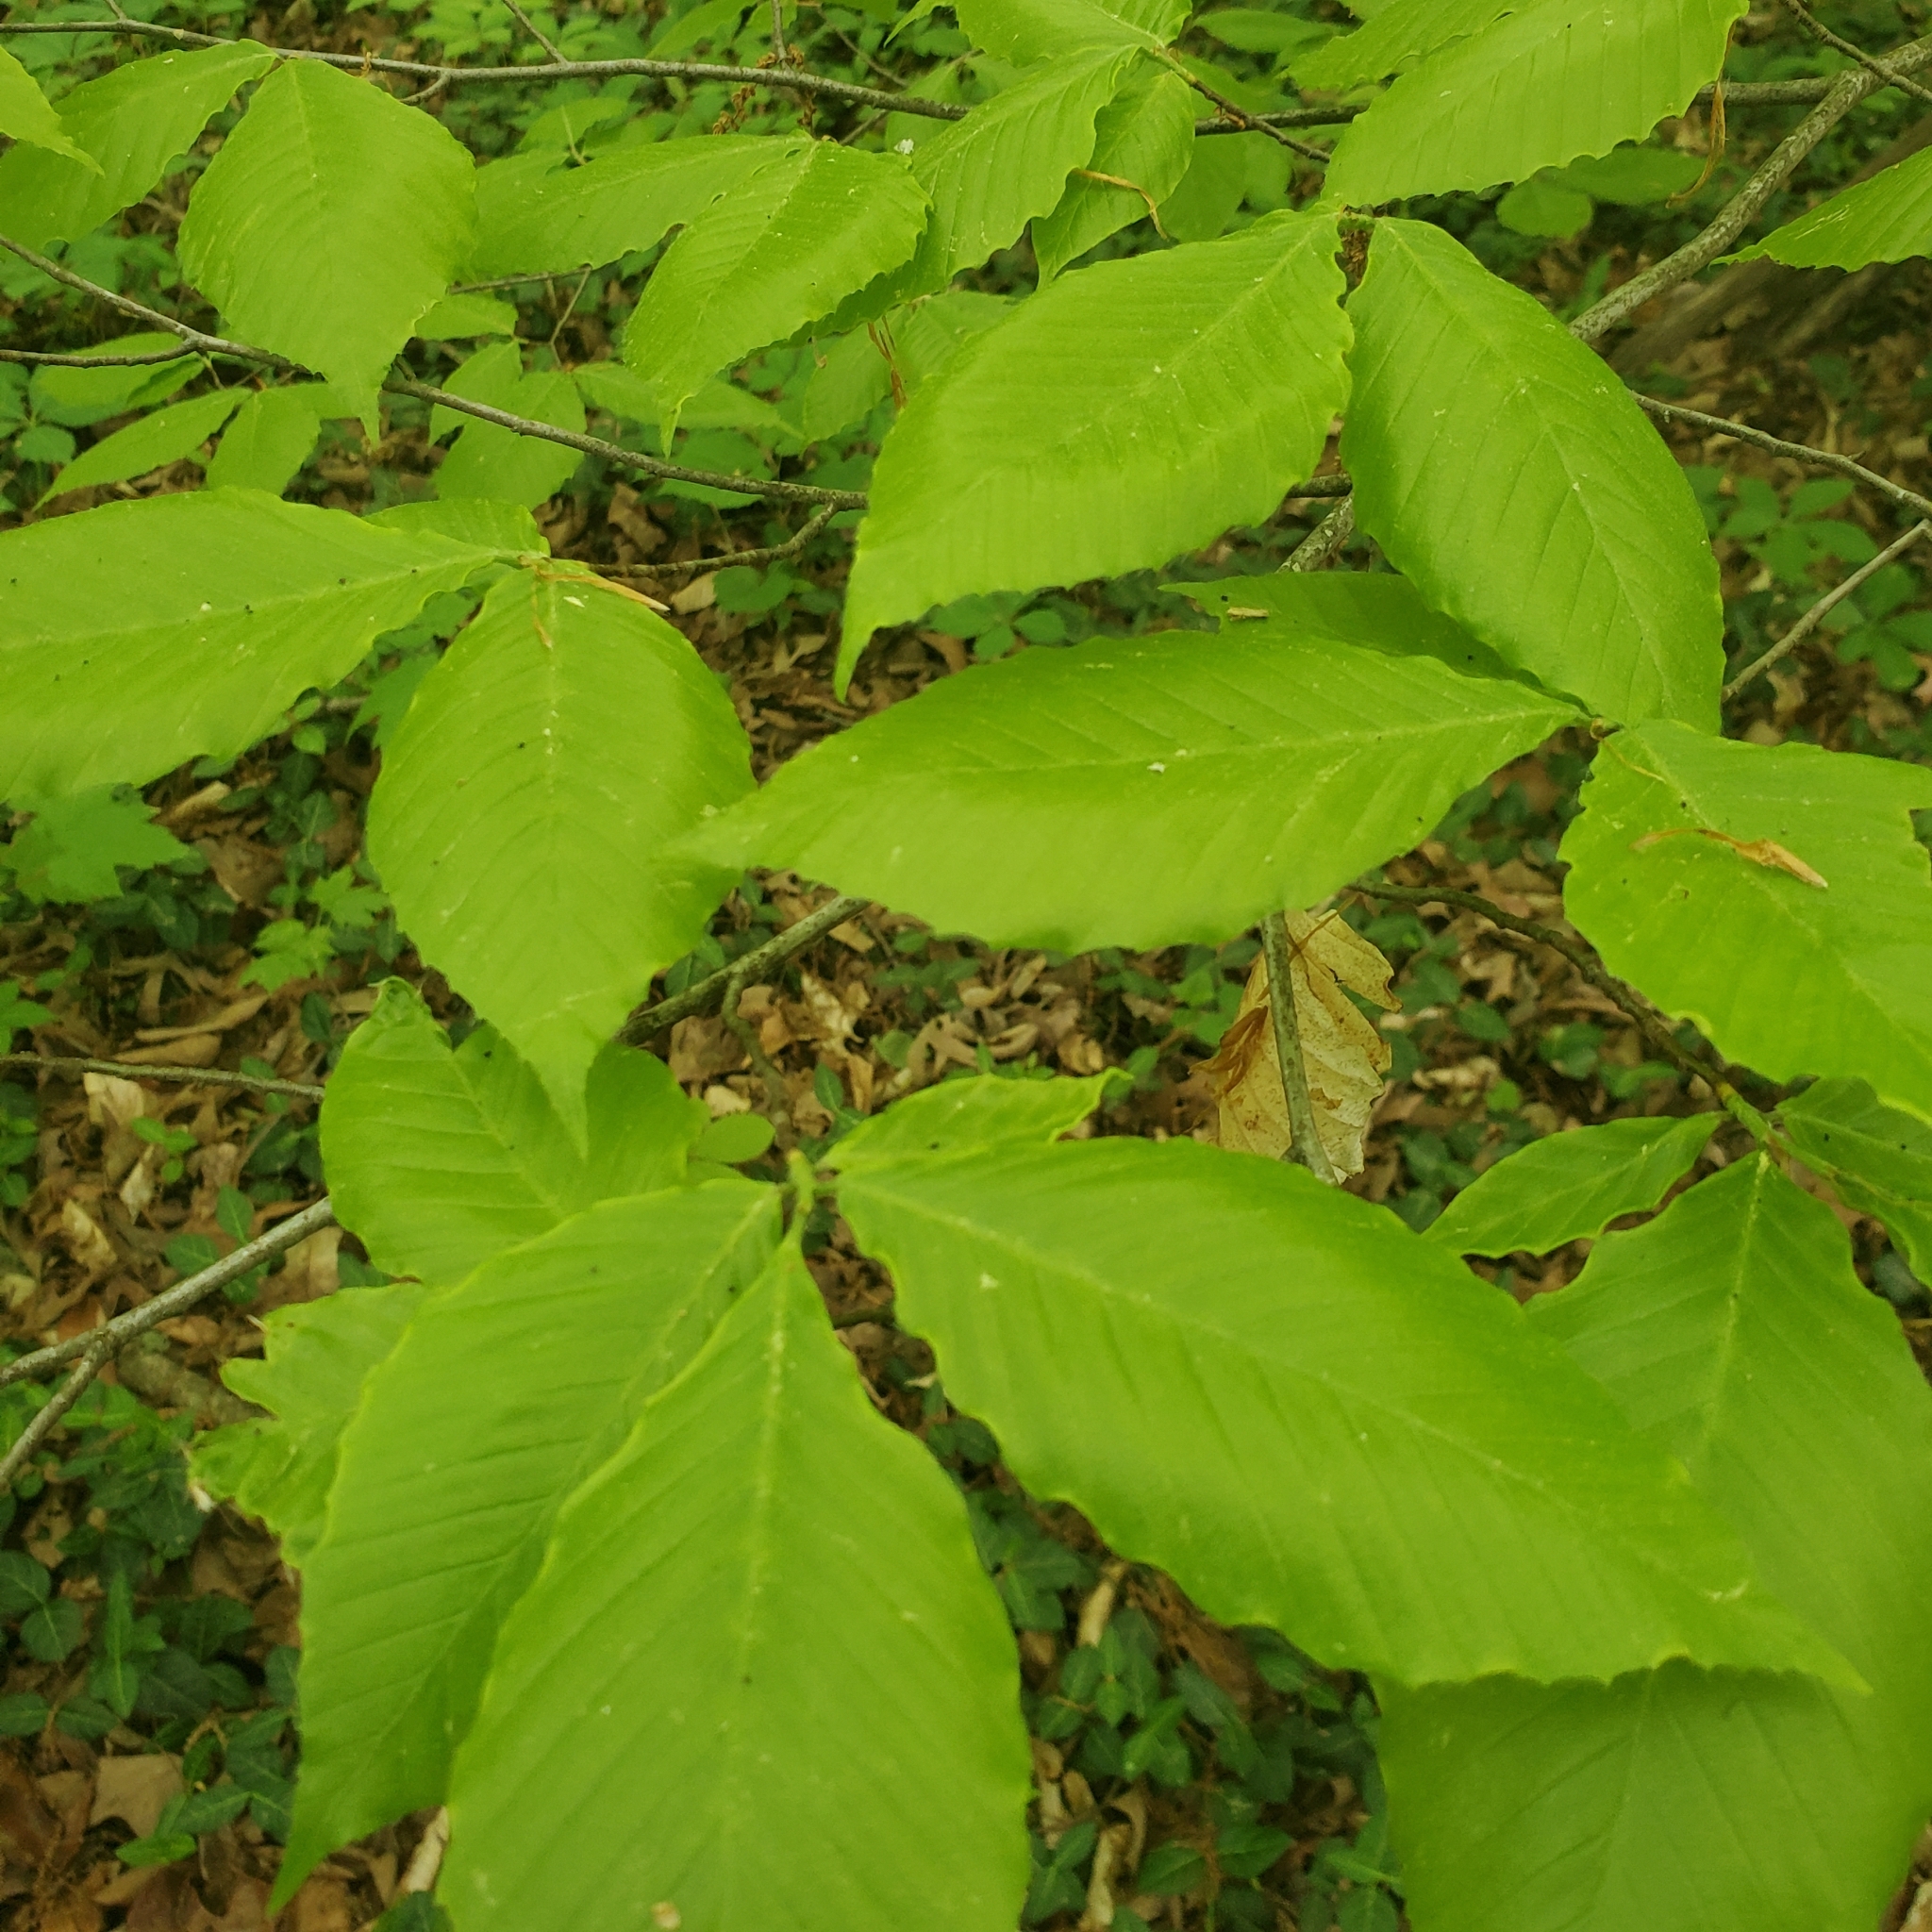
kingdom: Plantae
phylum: Tracheophyta
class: Magnoliopsida
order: Fagales
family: Fagaceae
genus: Fagus
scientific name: Fagus grandifolia
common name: American beech
